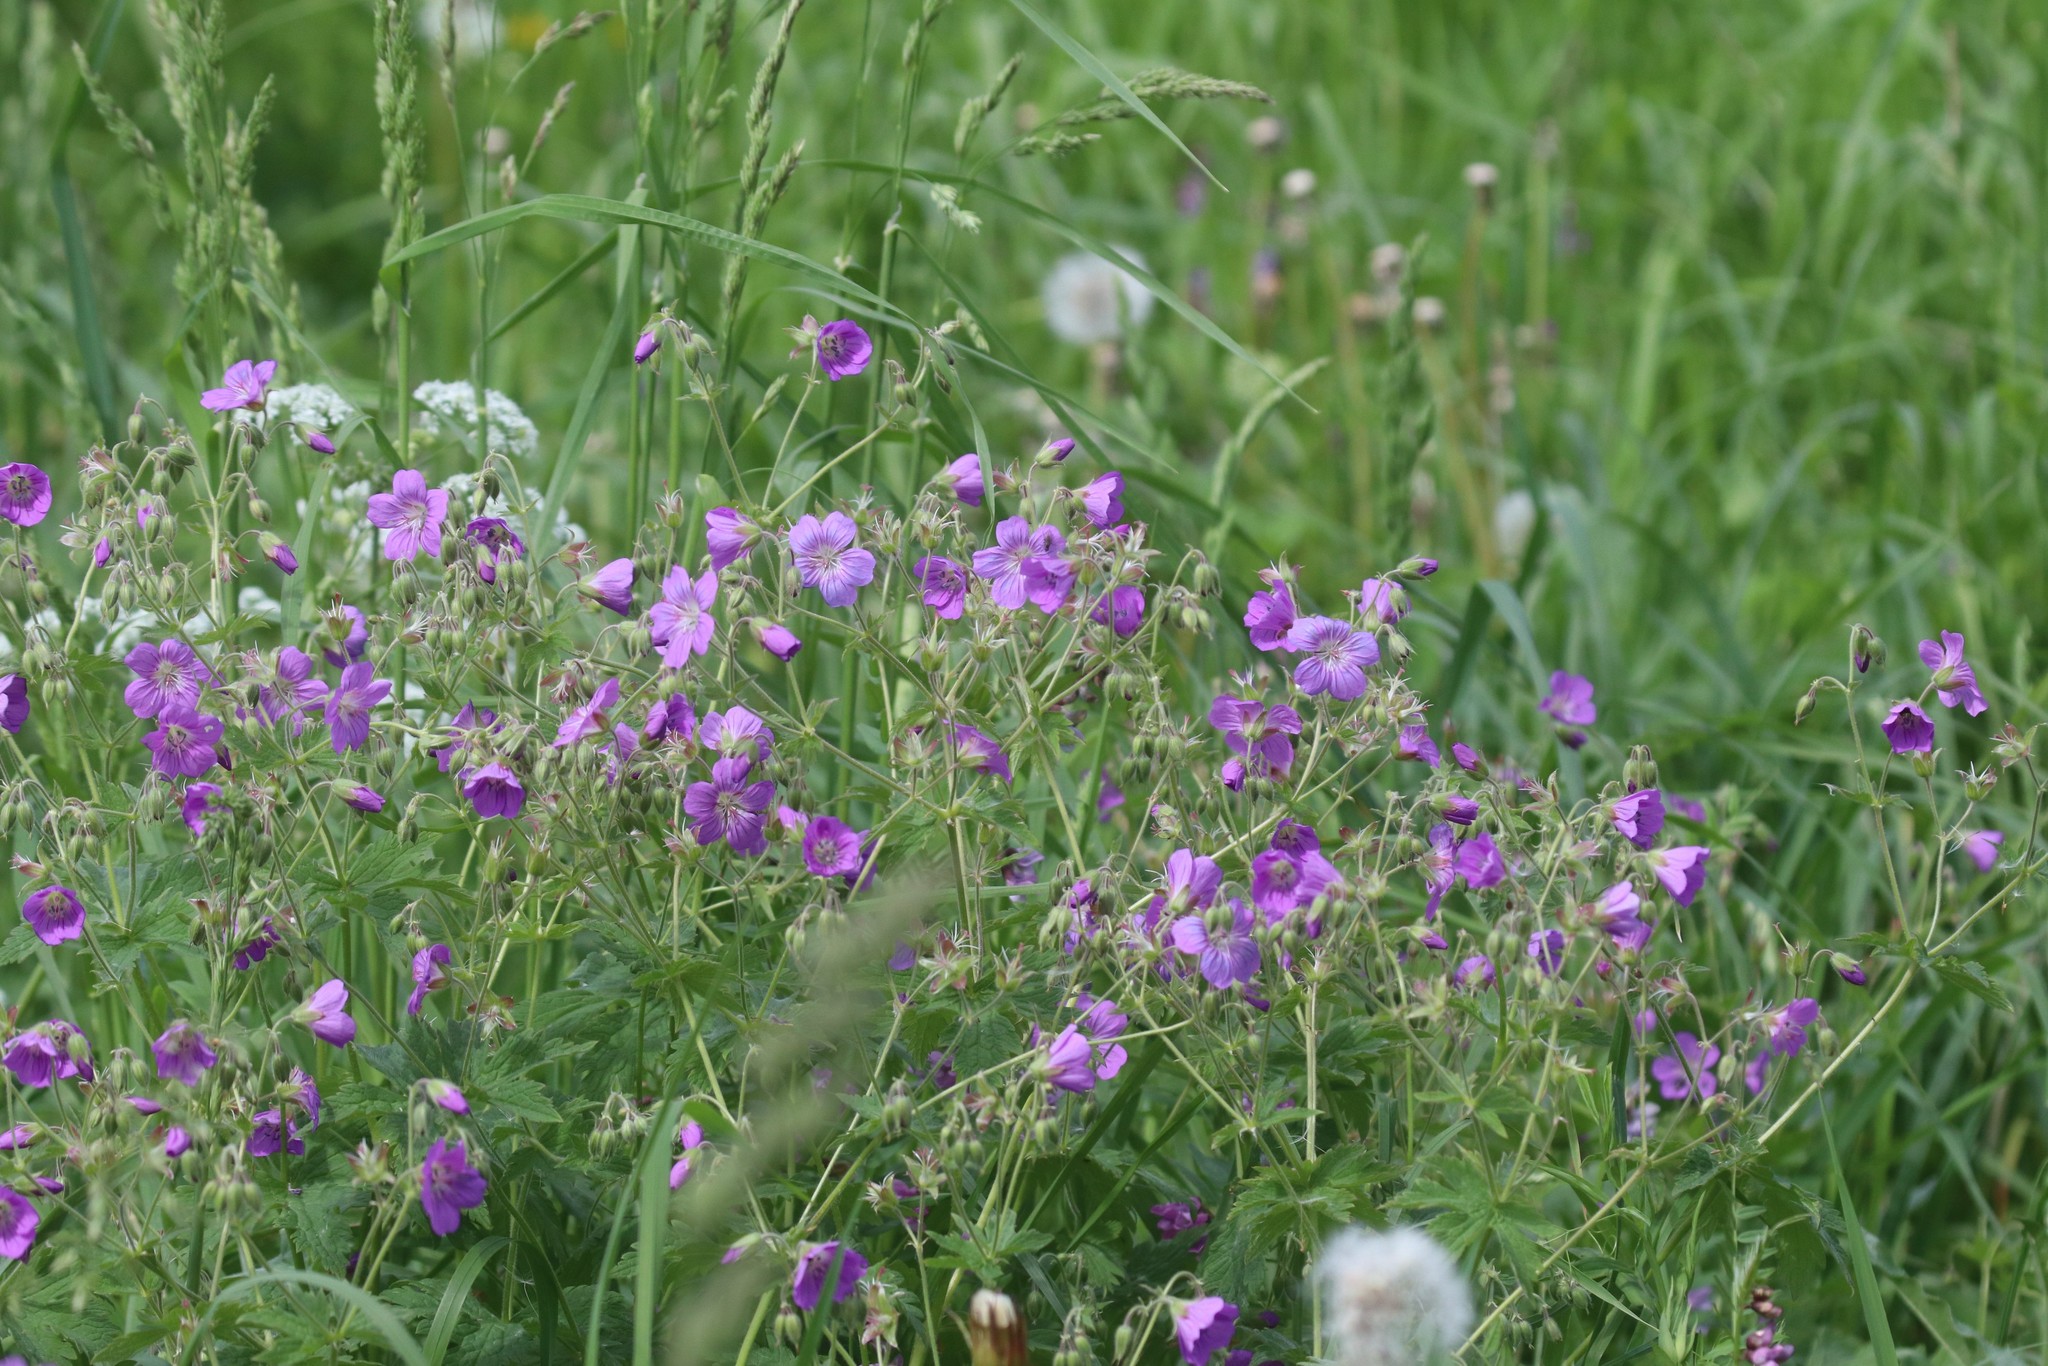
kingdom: Plantae
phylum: Tracheophyta
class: Magnoliopsida
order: Geraniales
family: Geraniaceae
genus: Geranium
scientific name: Geranium sylvaticum
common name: Wood crane's-bill
